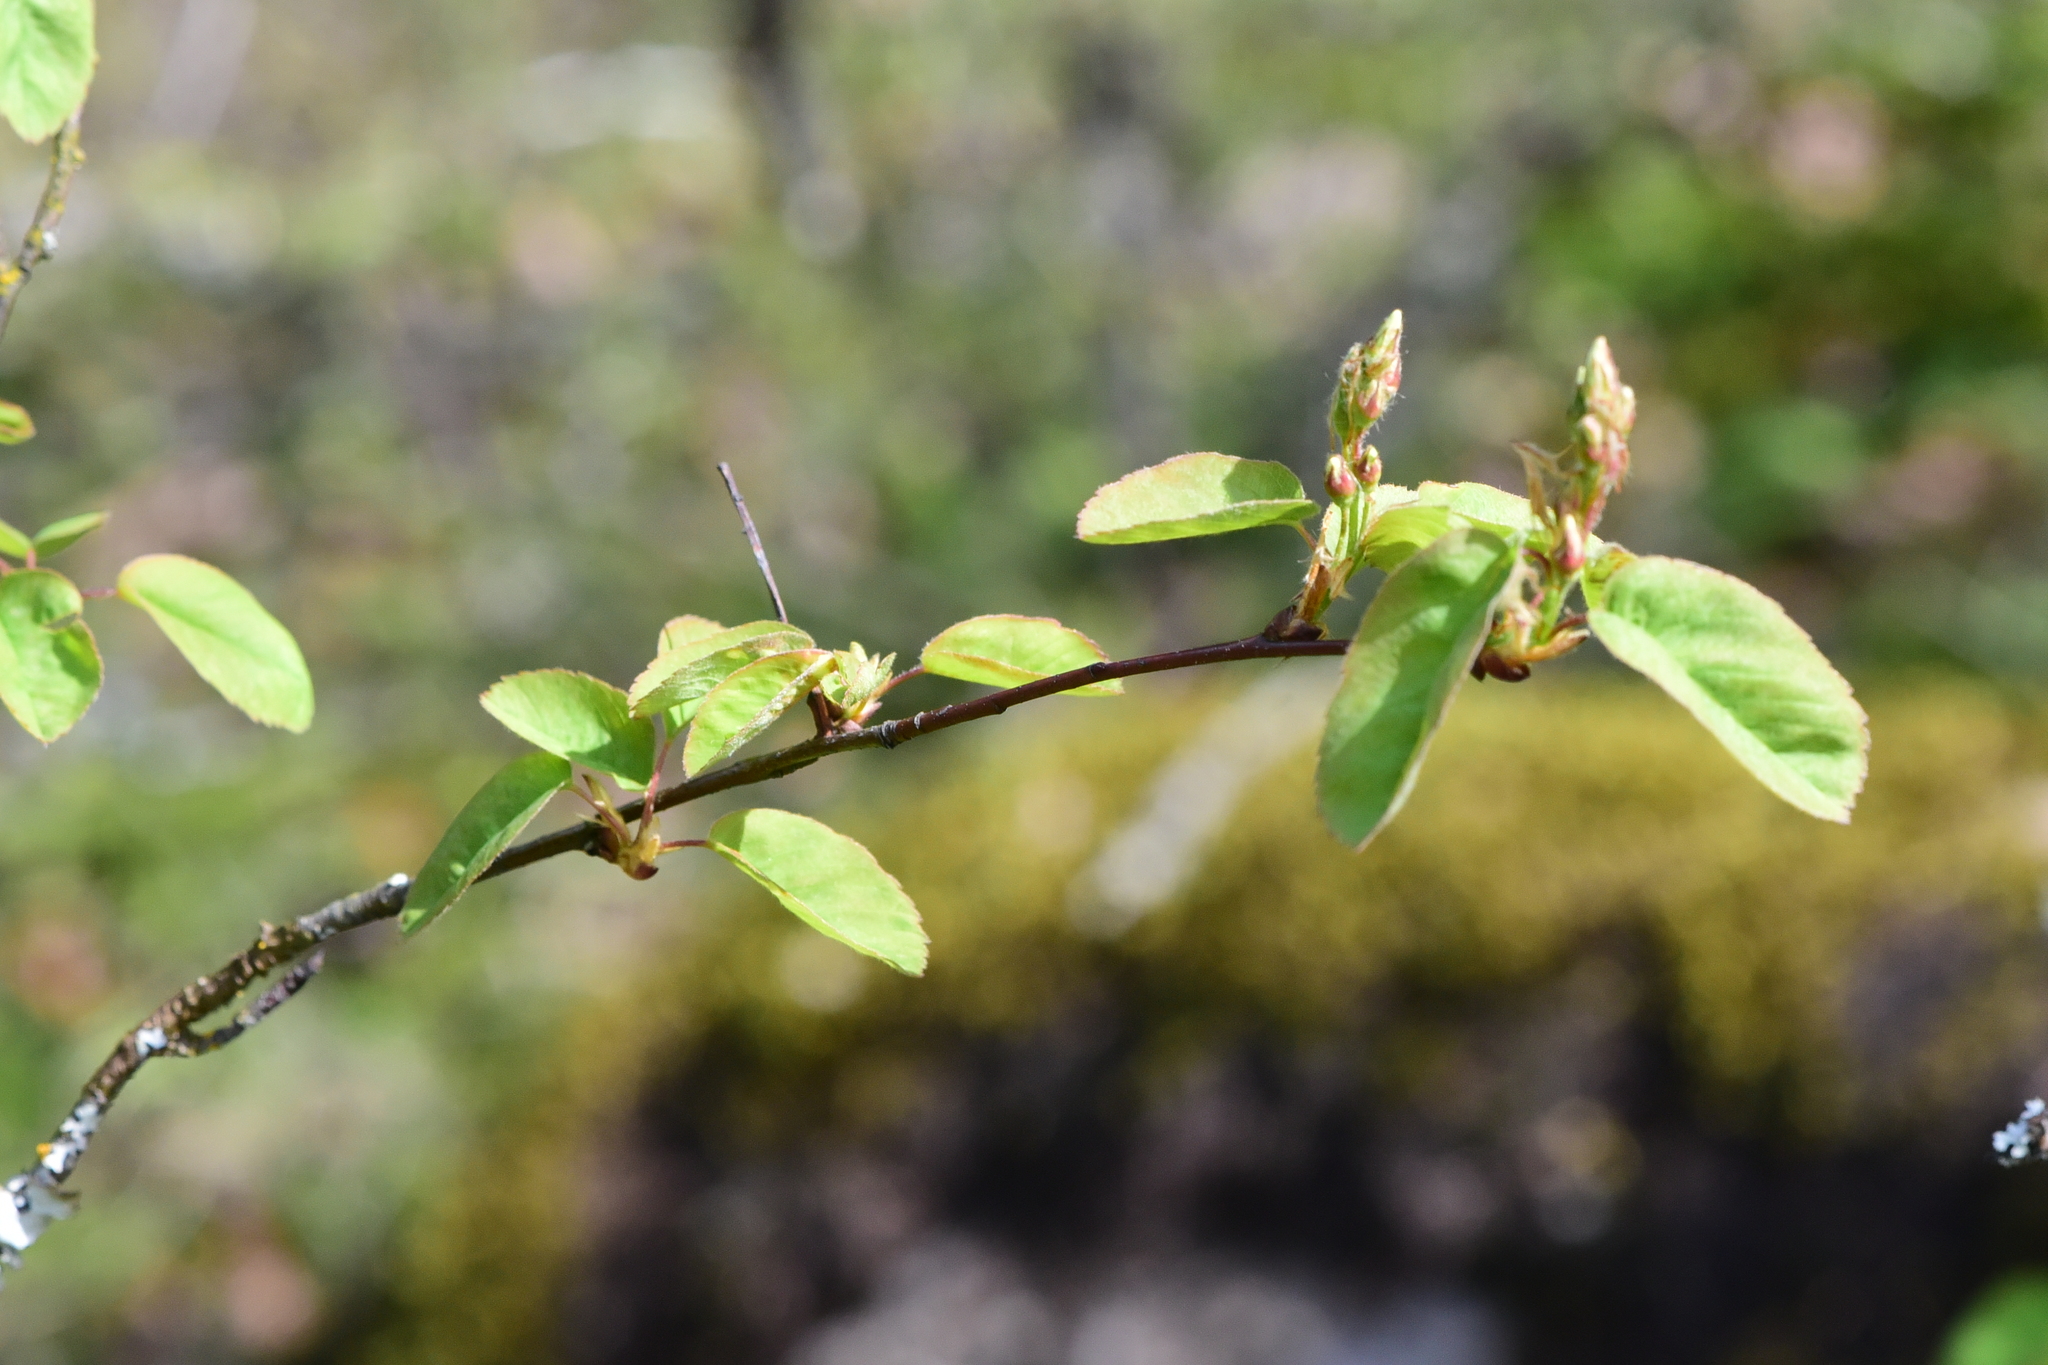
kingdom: Plantae
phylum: Tracheophyta
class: Magnoliopsida
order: Rosales
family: Rosaceae
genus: Amelanchier
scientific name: Amelanchier alnifolia
